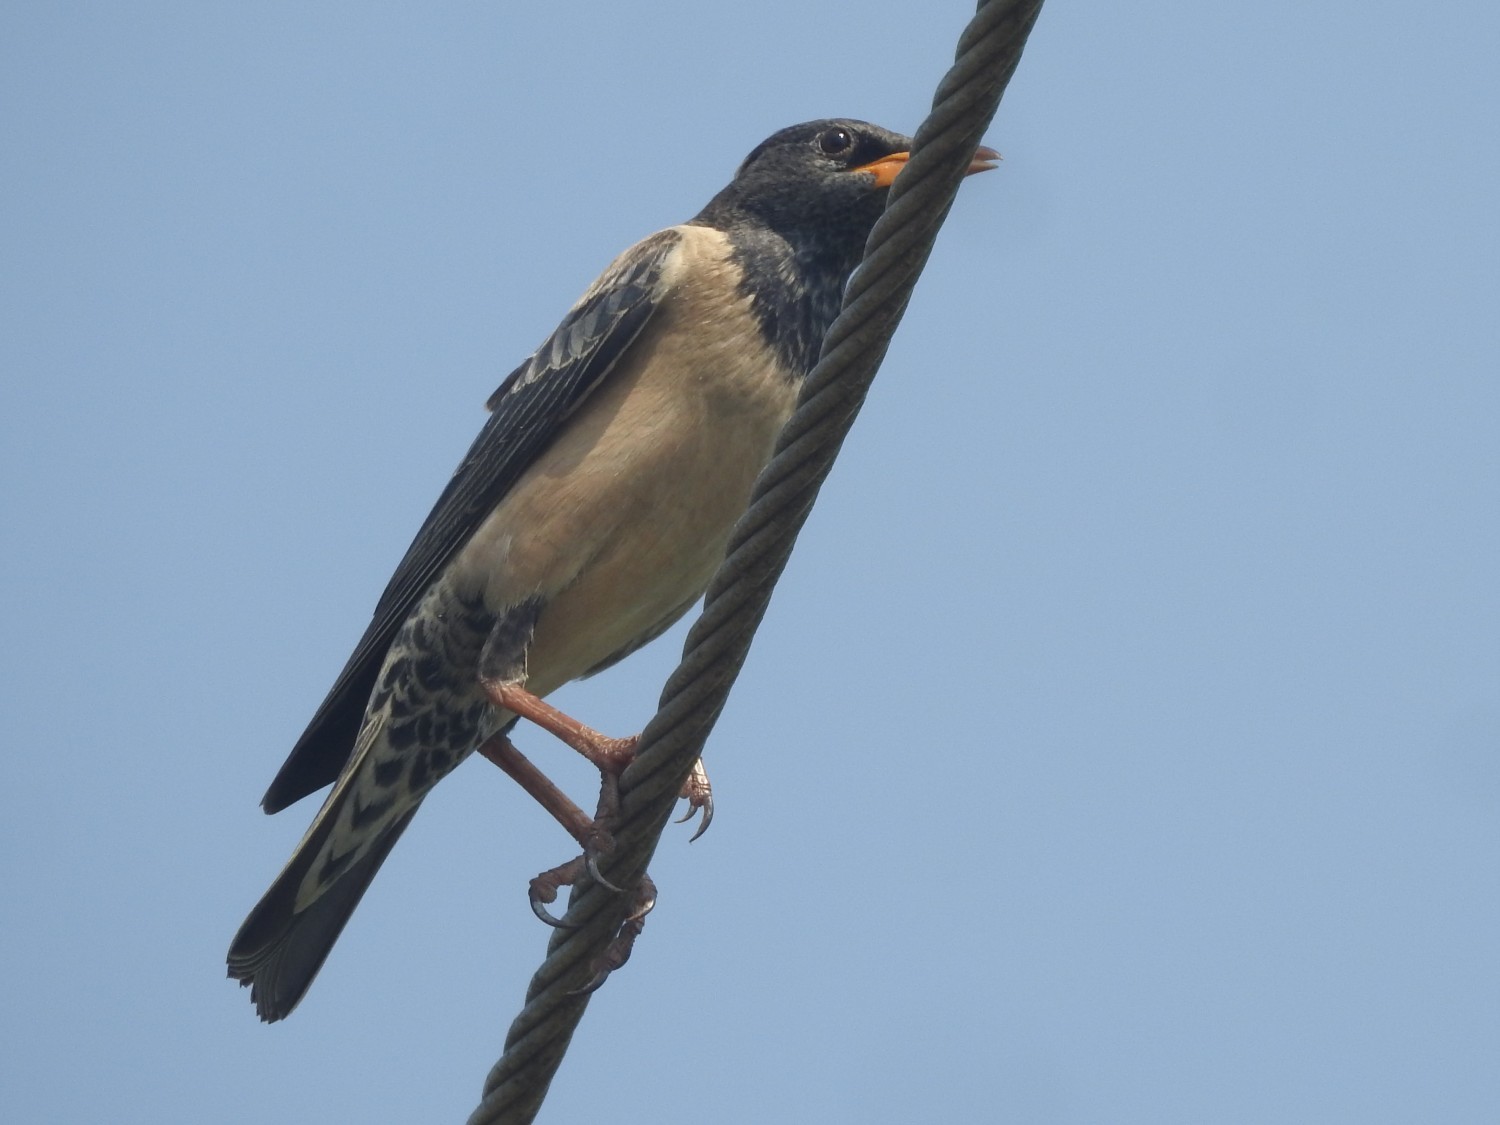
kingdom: Animalia
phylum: Chordata
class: Aves
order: Passeriformes
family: Sturnidae
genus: Pastor
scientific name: Pastor roseus
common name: Rosy starling
